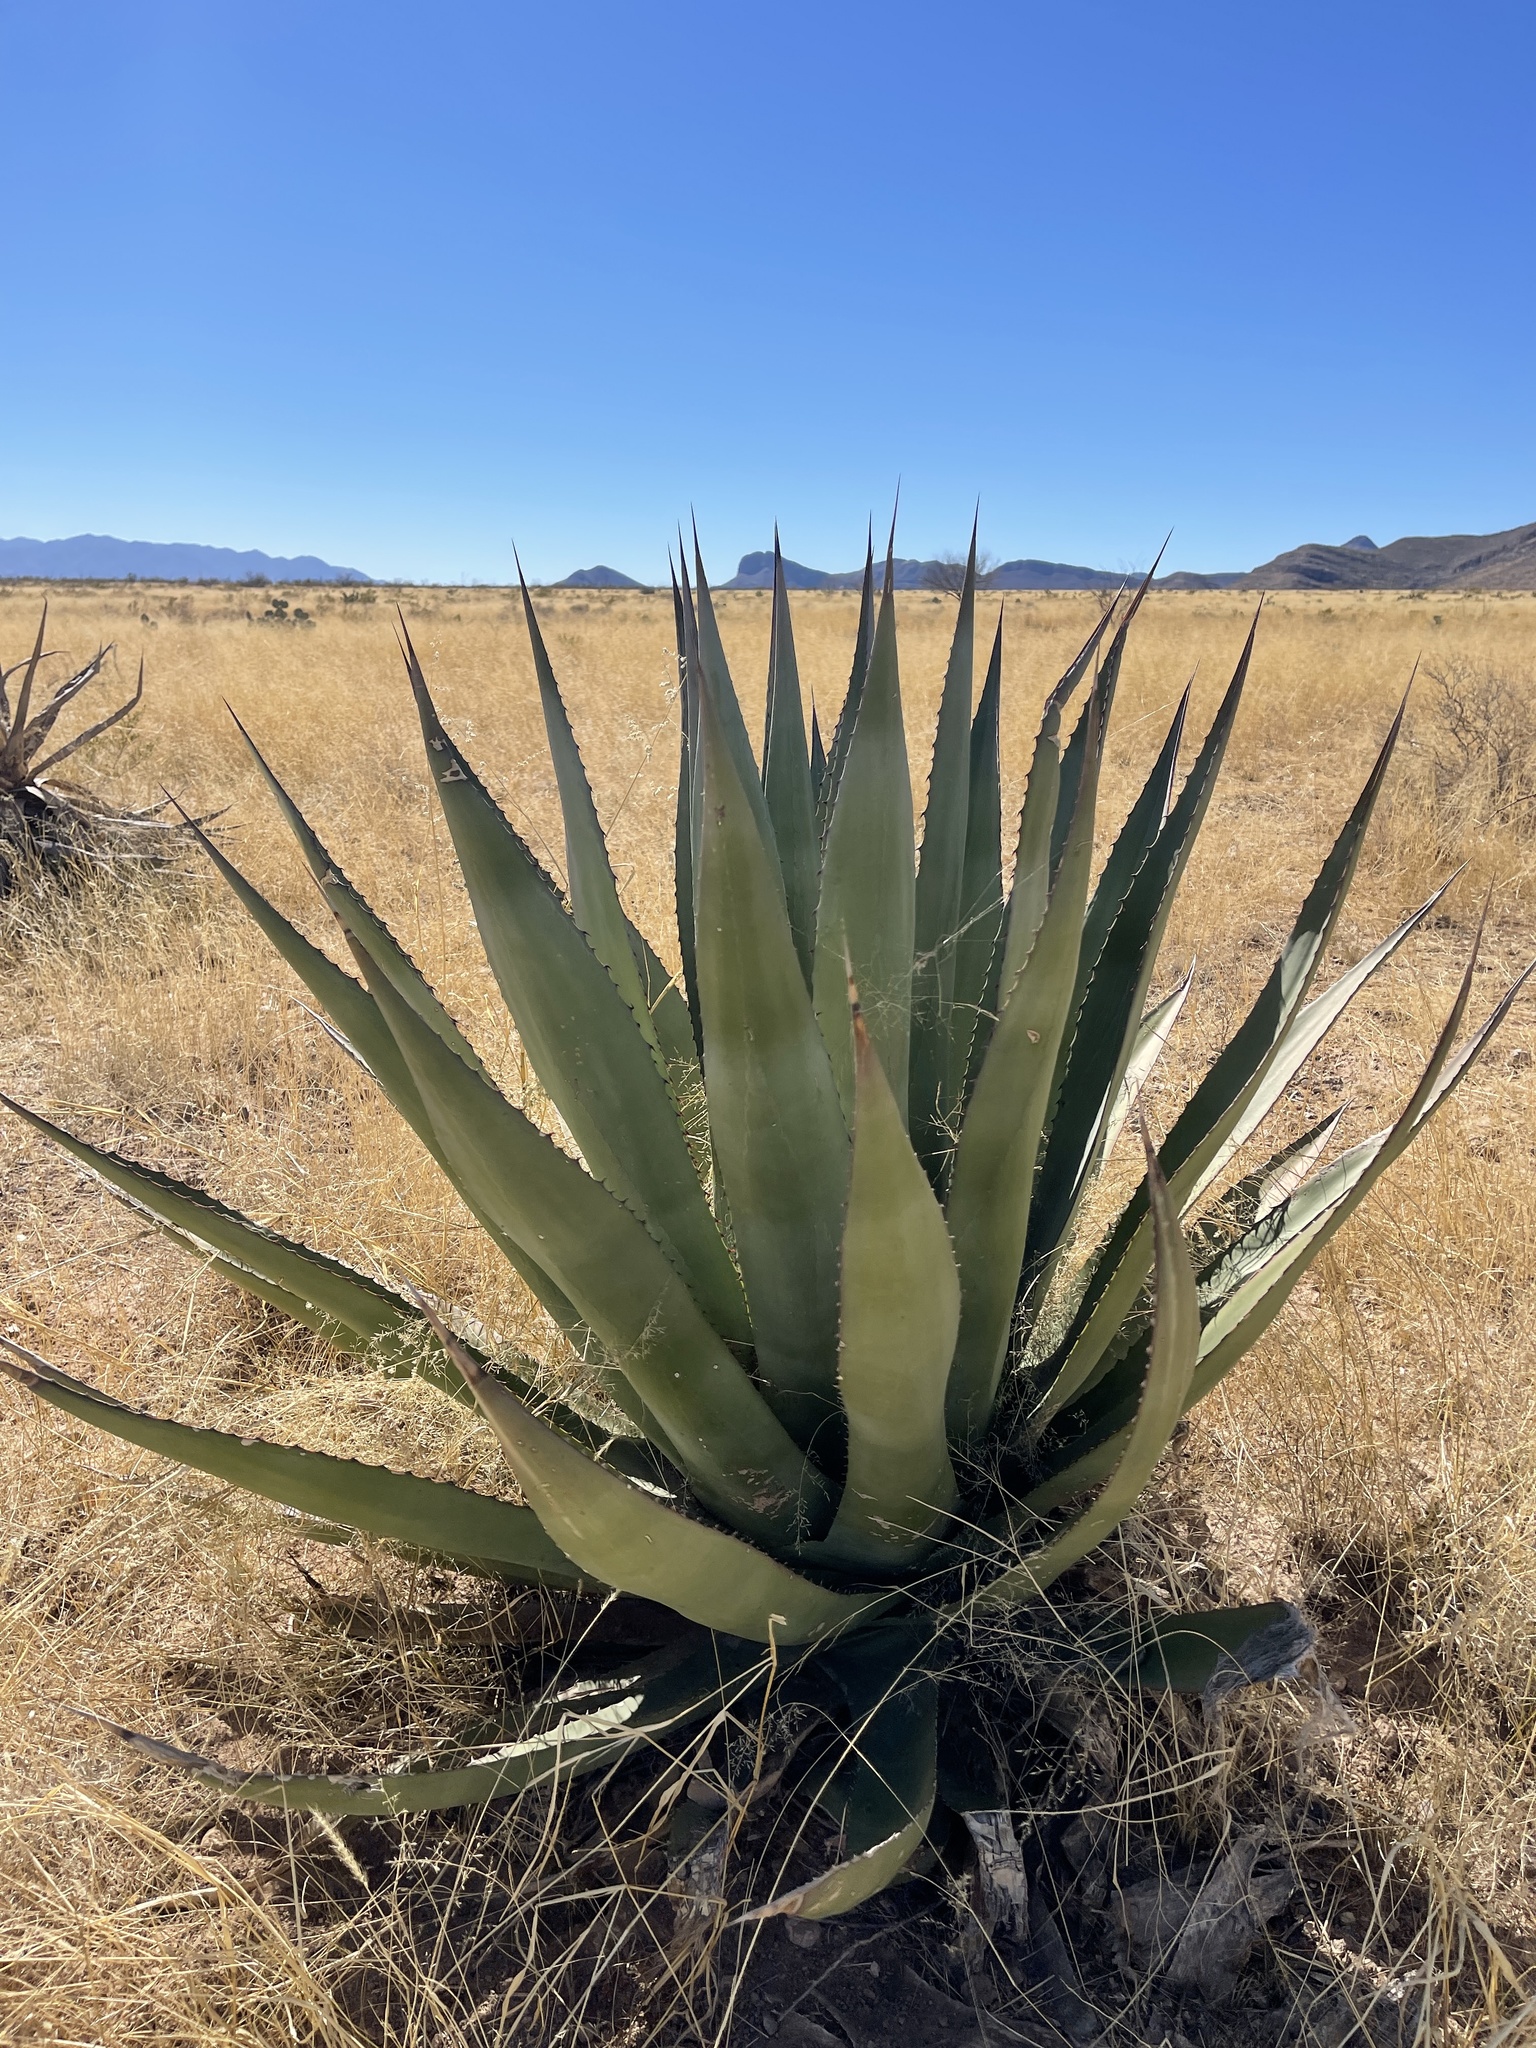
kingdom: Plantae
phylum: Tracheophyta
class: Liliopsida
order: Asparagales
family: Asparagaceae
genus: Agave
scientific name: Agave palmeri
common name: Palmer agave
